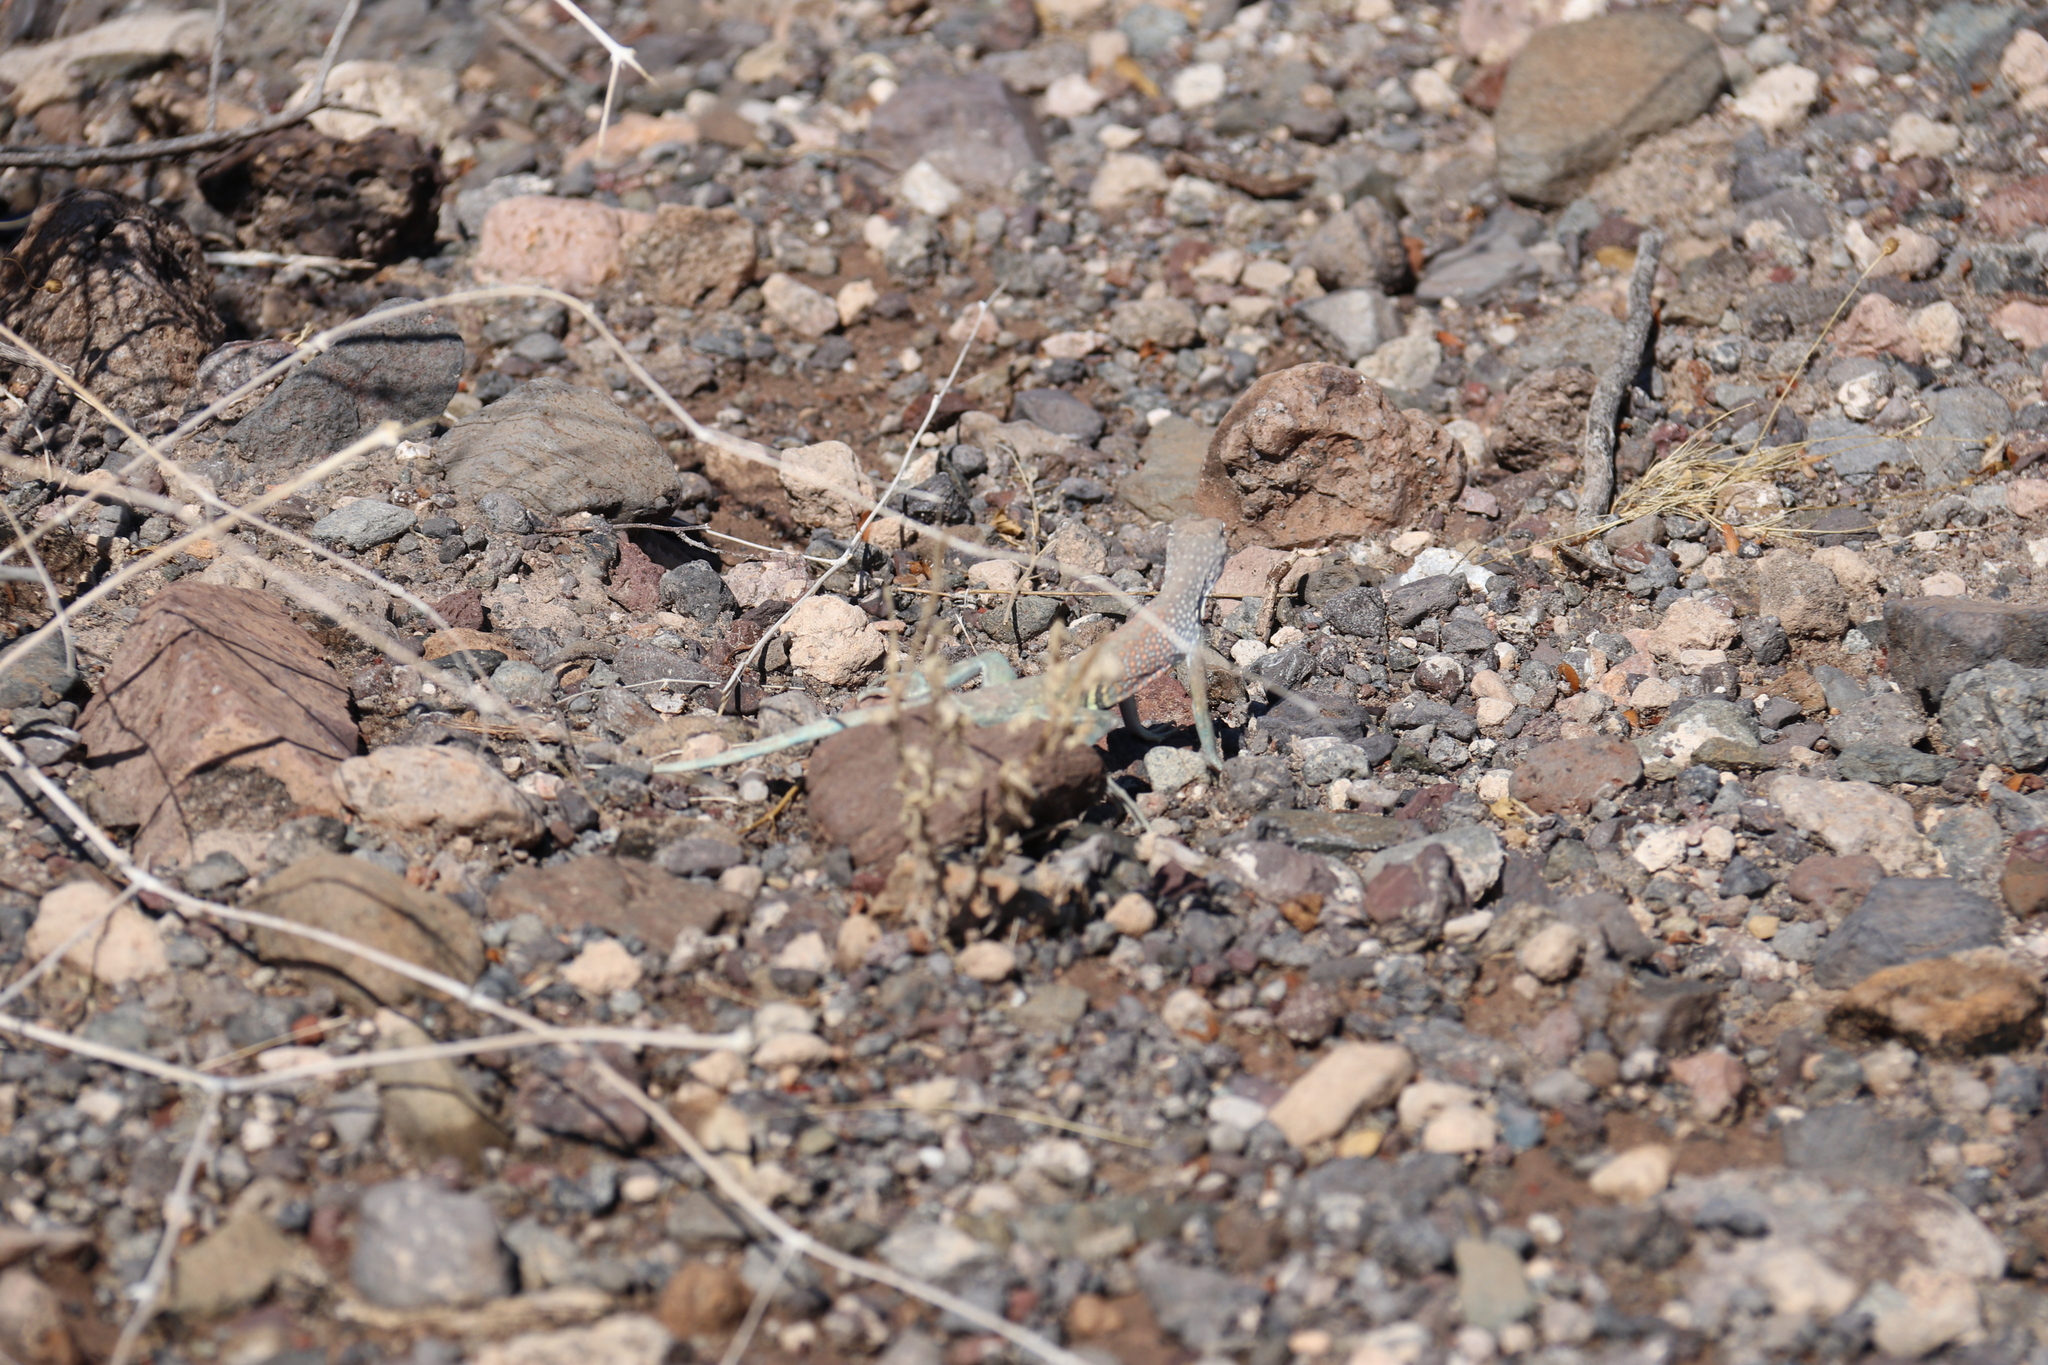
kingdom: Animalia
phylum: Chordata
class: Squamata
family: Phrynosomatidae
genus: Cophosaurus
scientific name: Cophosaurus texanus
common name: Greater earless lizard
